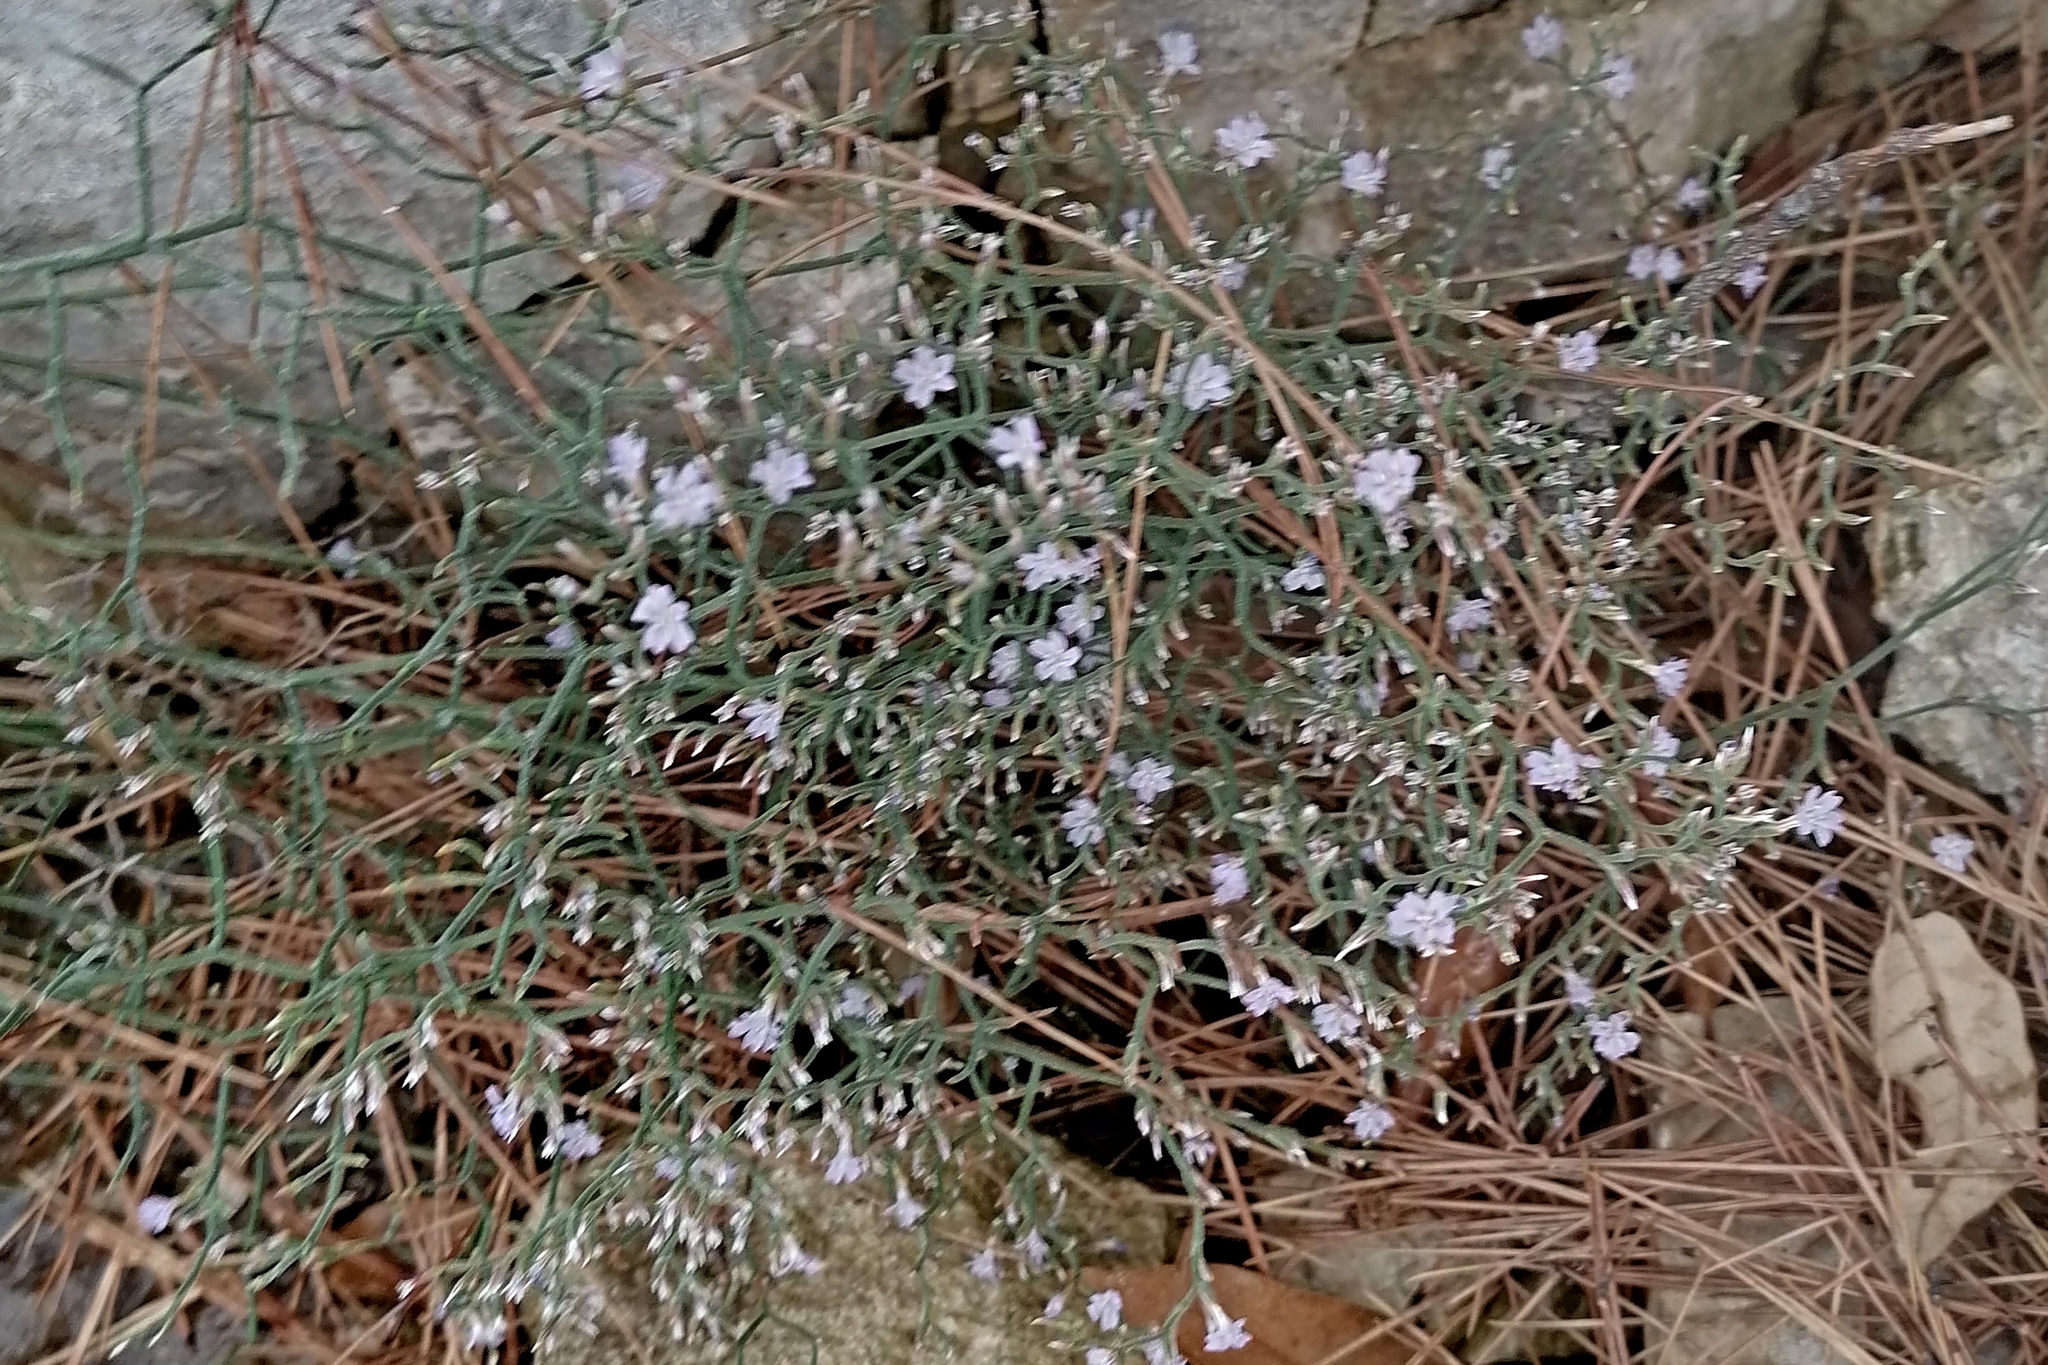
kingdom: Plantae
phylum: Tracheophyta
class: Magnoliopsida
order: Caryophyllales
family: Plumbaginaceae
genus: Limonium
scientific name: Limonium cancellatum
